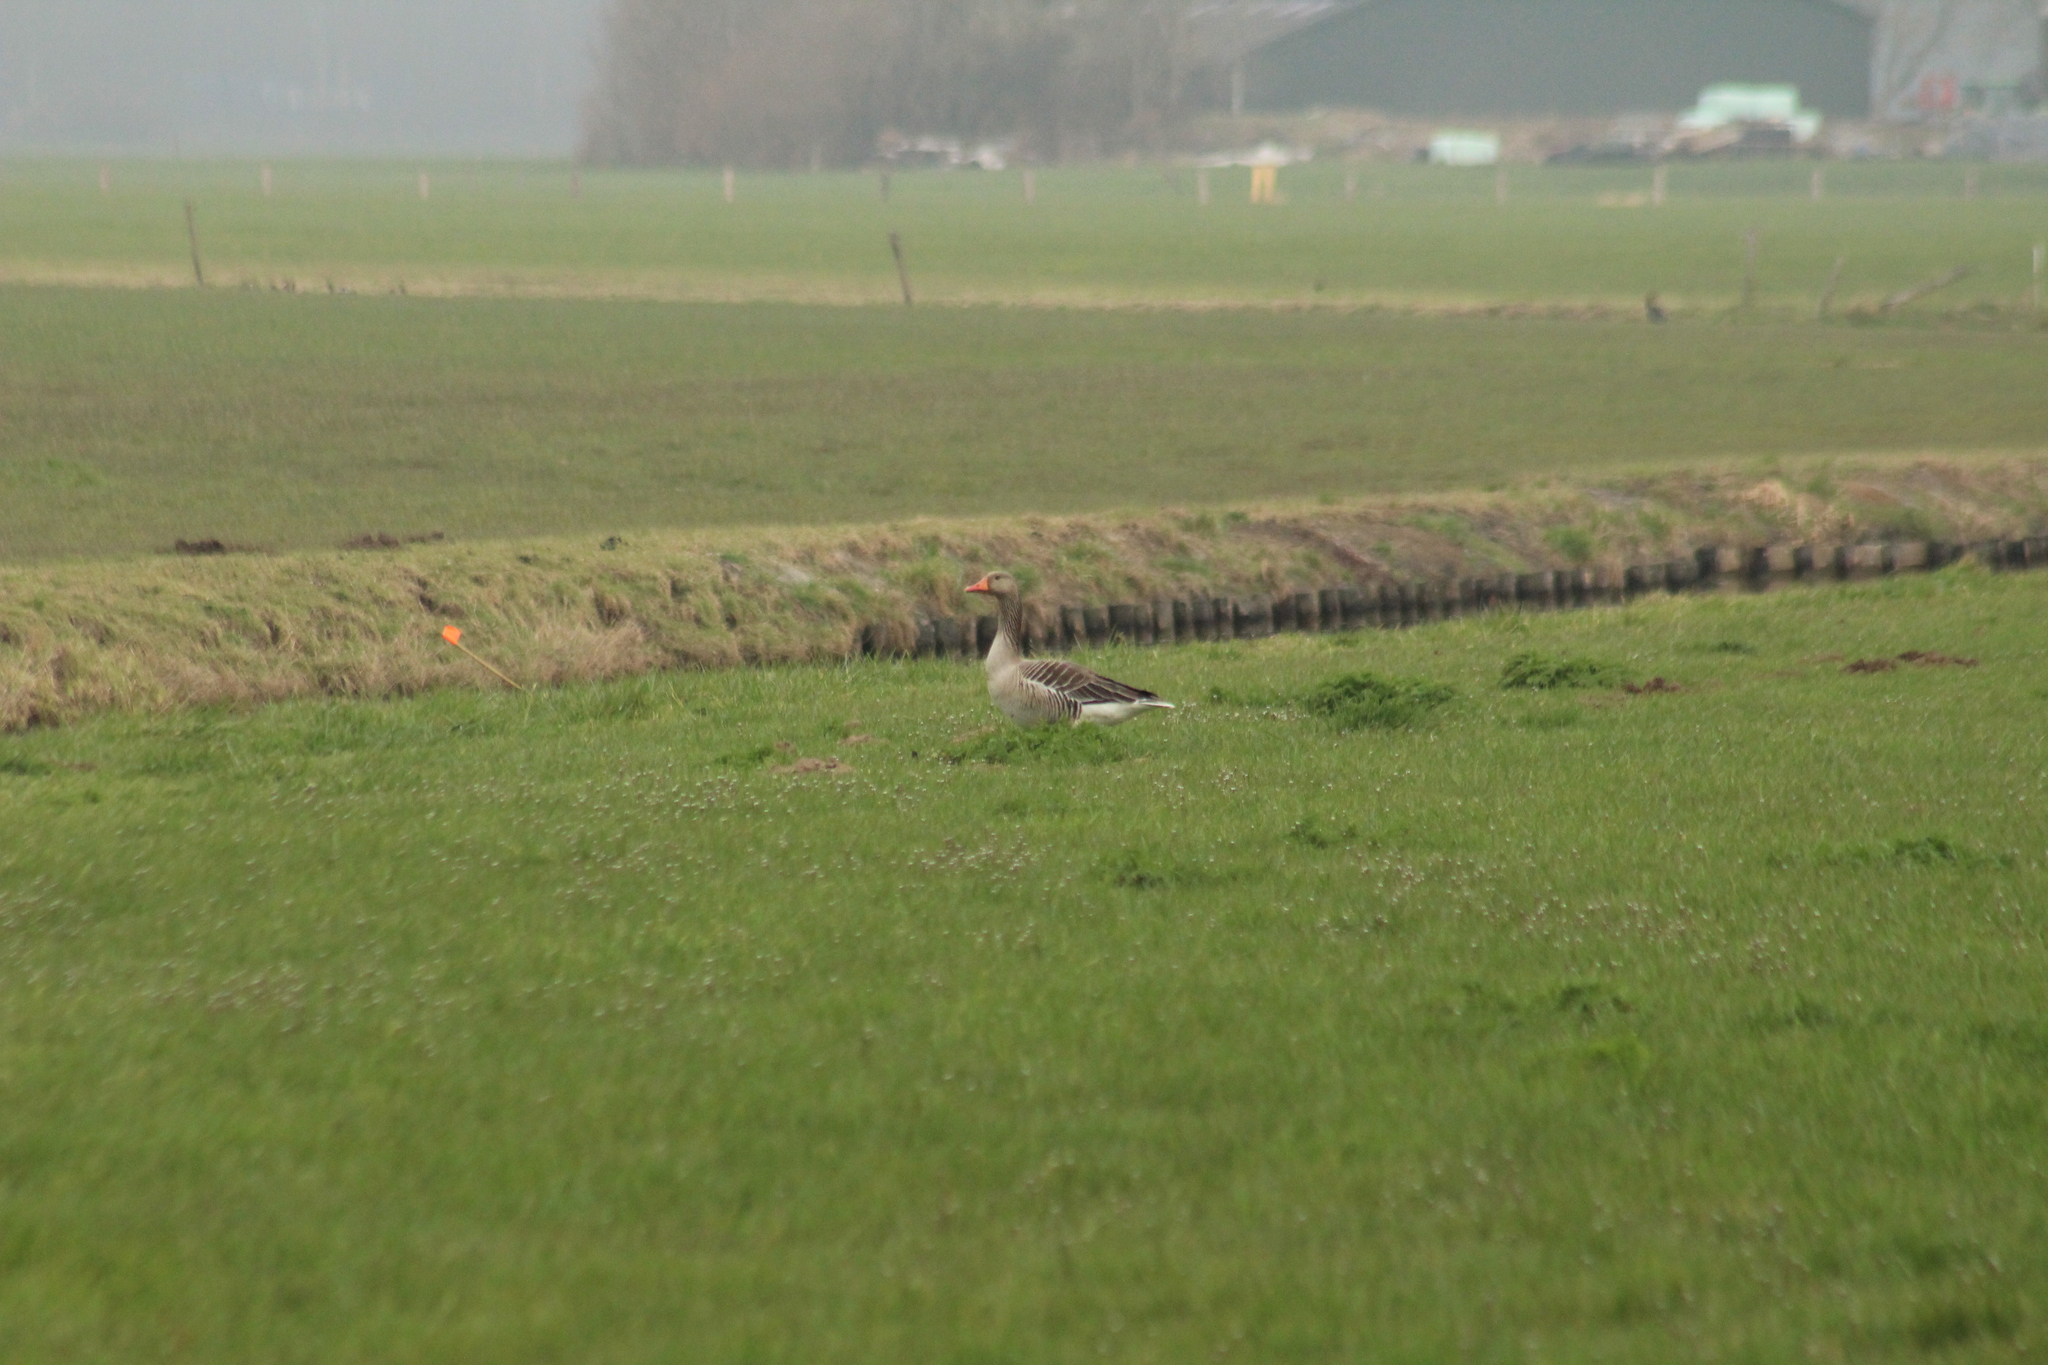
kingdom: Animalia
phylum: Chordata
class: Aves
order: Anseriformes
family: Anatidae
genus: Anser
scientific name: Anser anser
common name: Greylag goose
